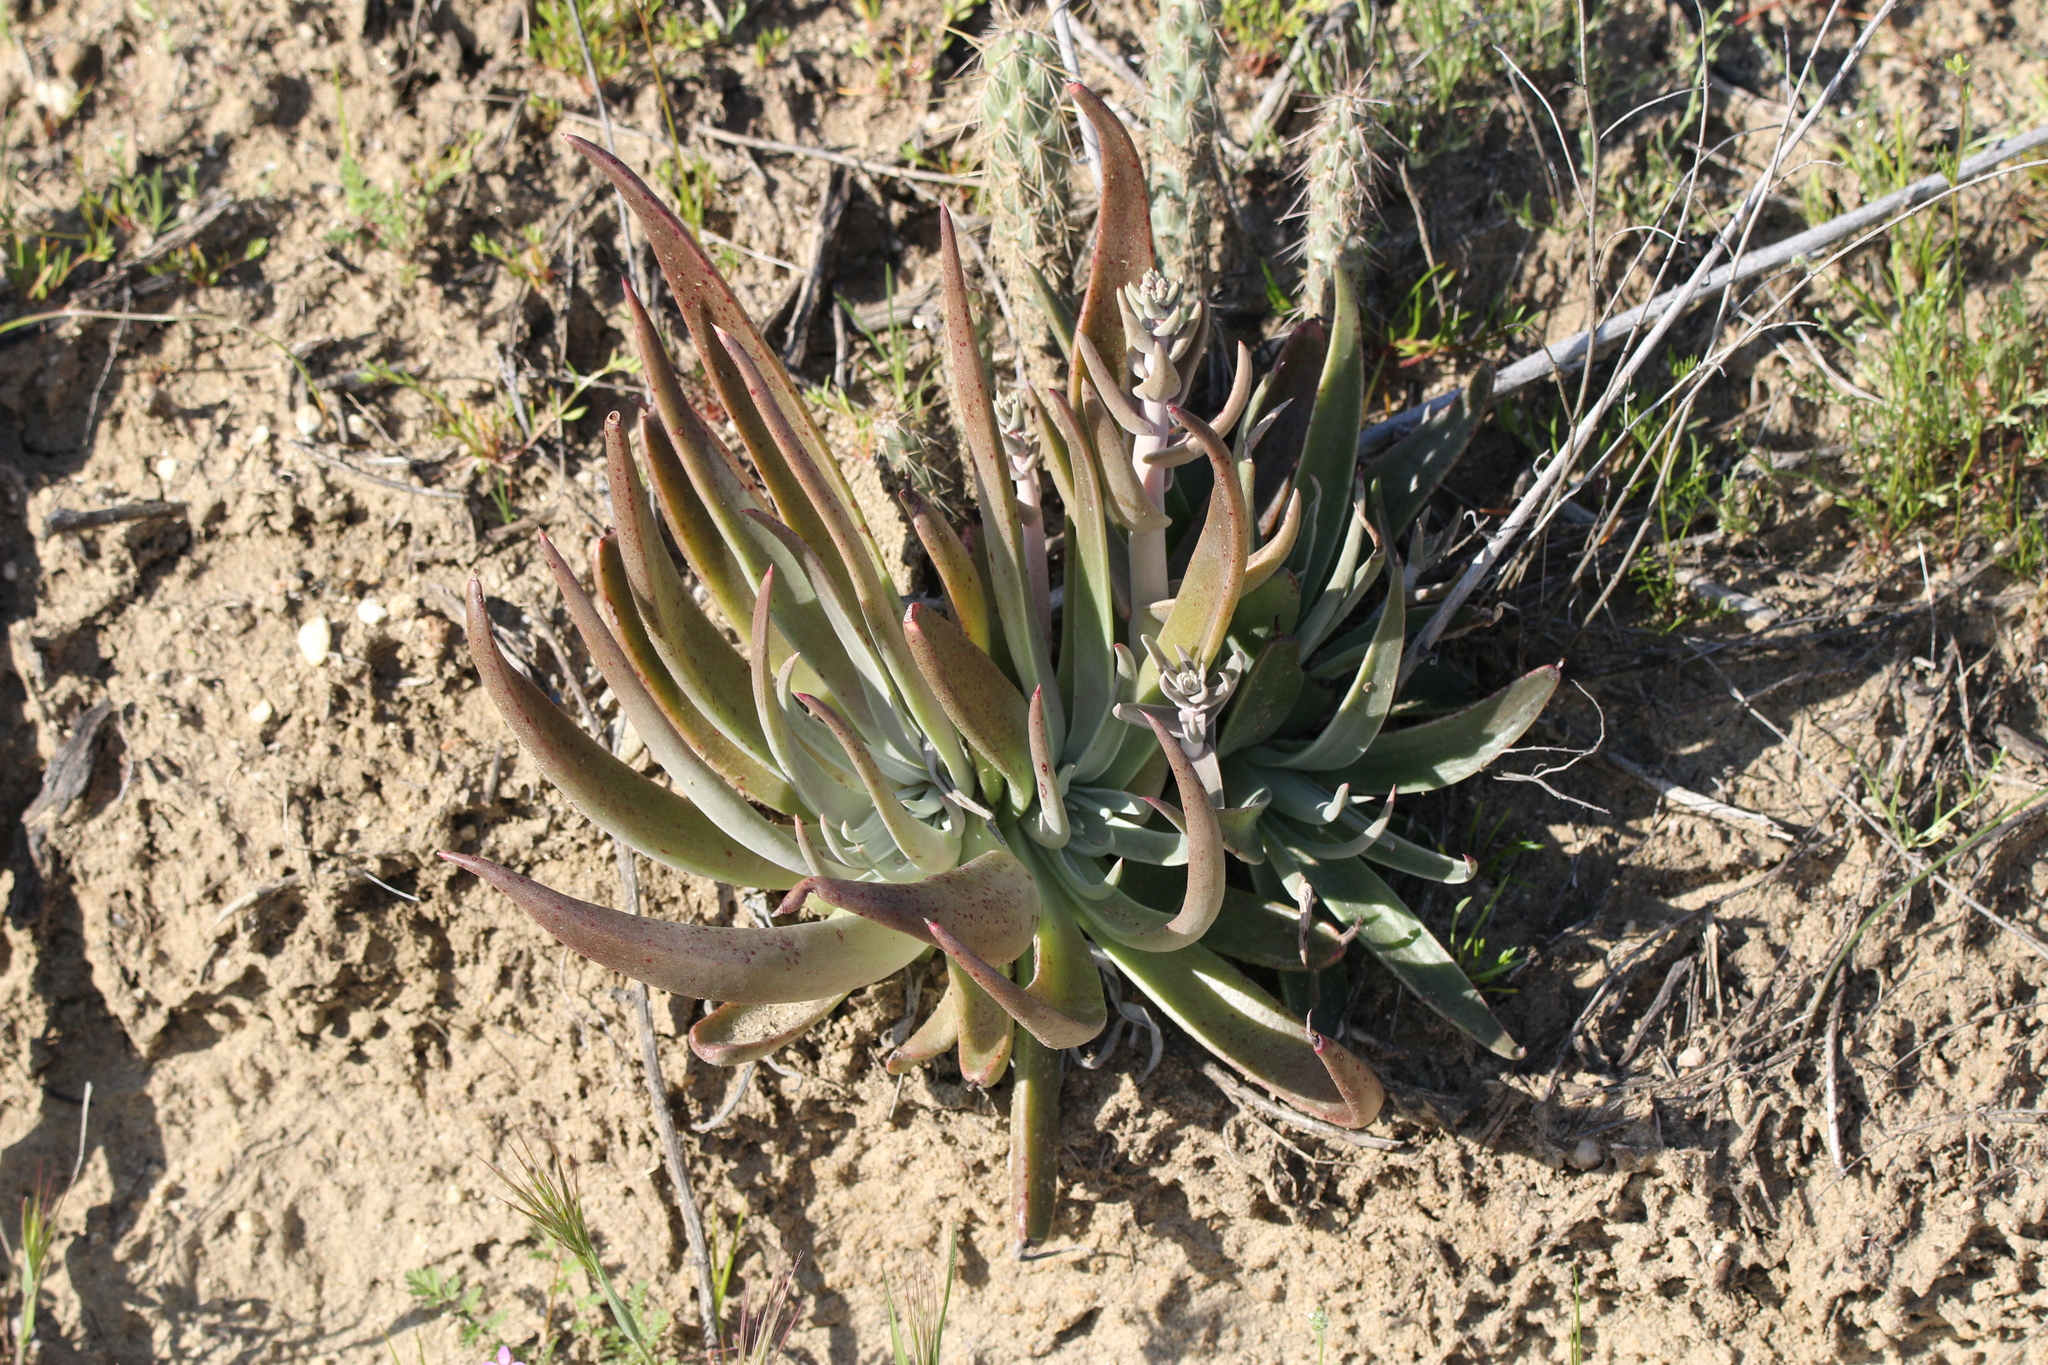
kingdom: Plantae
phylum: Tracheophyta
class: Magnoliopsida
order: Saxifragales
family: Crassulaceae
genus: Dudleya
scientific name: Dudleya saxosa
